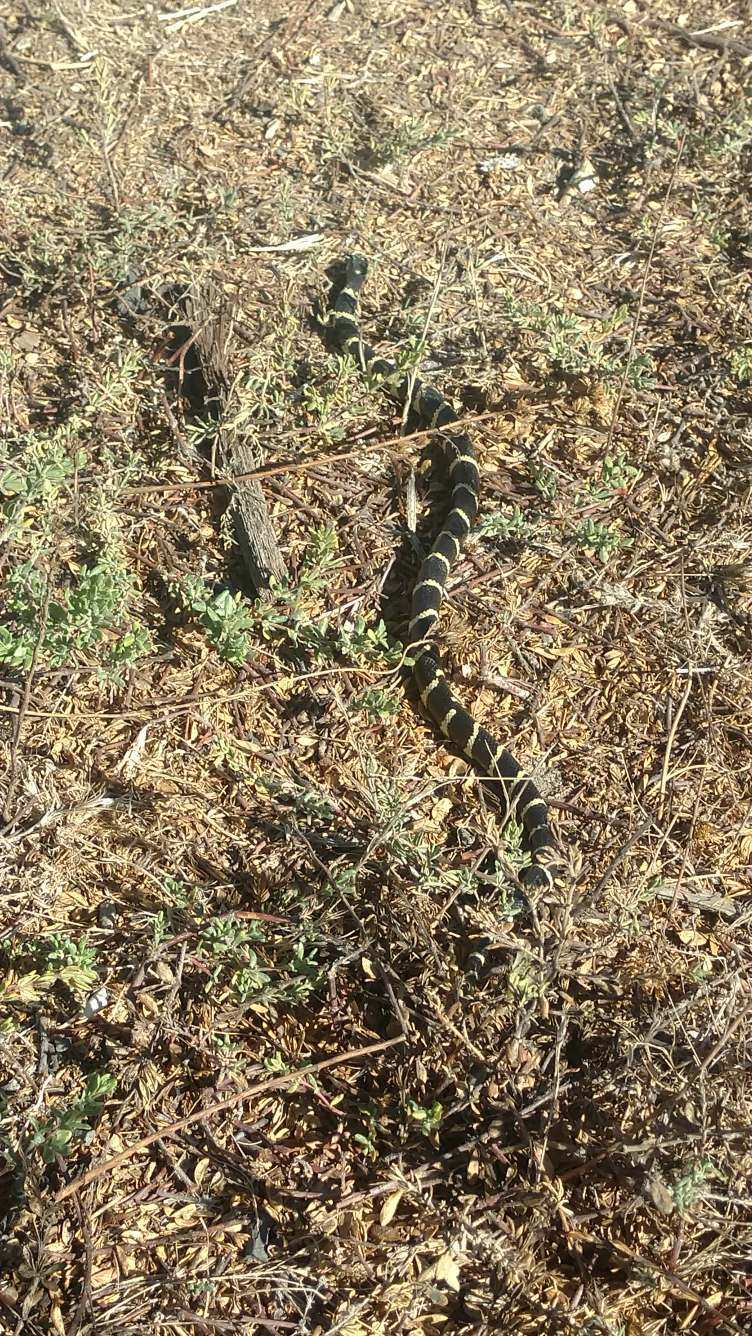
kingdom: Animalia
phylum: Chordata
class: Squamata
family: Colubridae
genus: Lampropeltis
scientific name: Lampropeltis californiae
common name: California kingsnake
